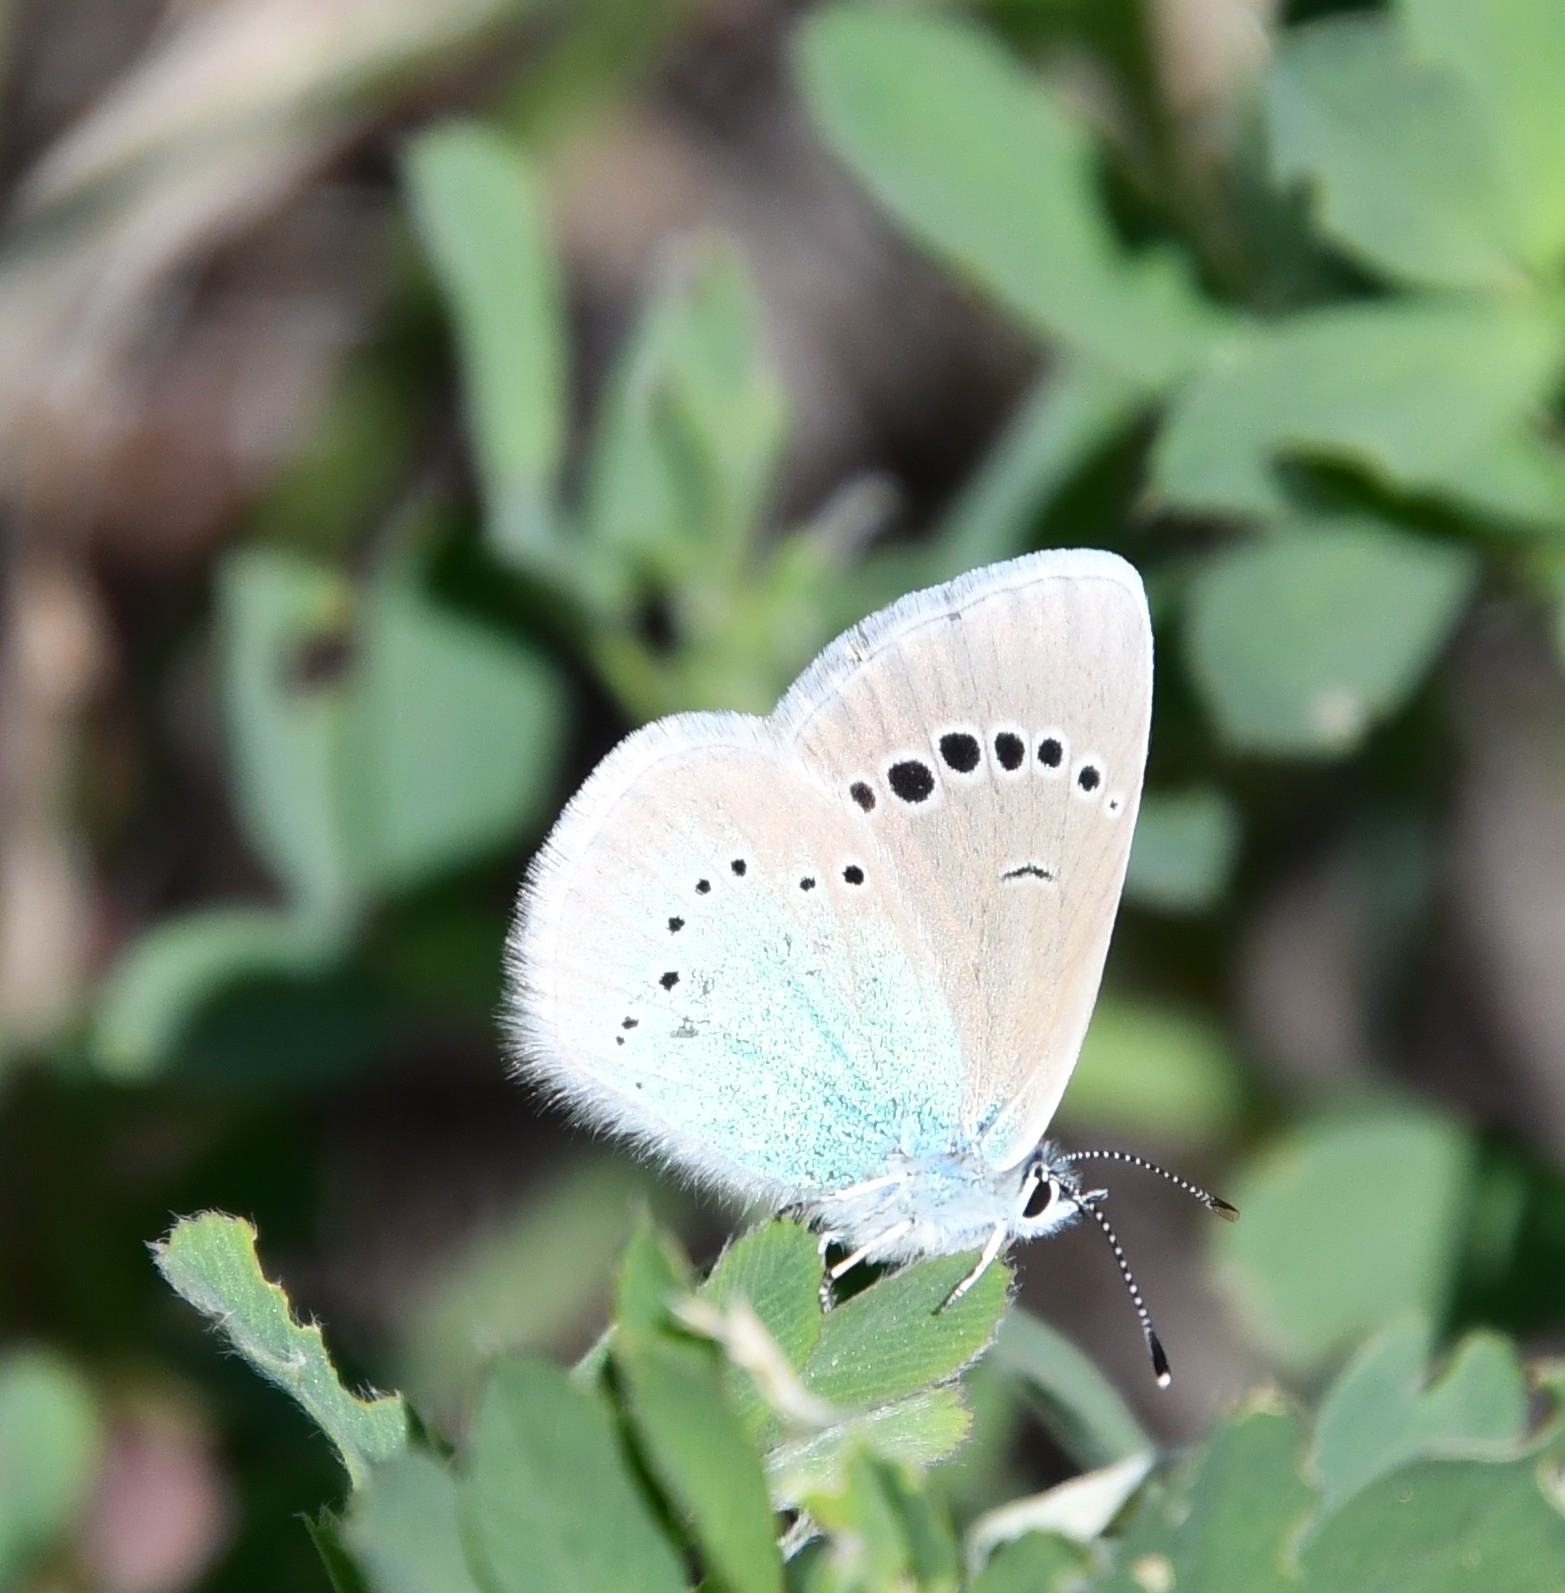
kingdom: Animalia
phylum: Arthropoda
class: Insecta
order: Lepidoptera
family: Lycaenidae
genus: Glaucopsyche
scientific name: Glaucopsyche alexis
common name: Green-underside blue
